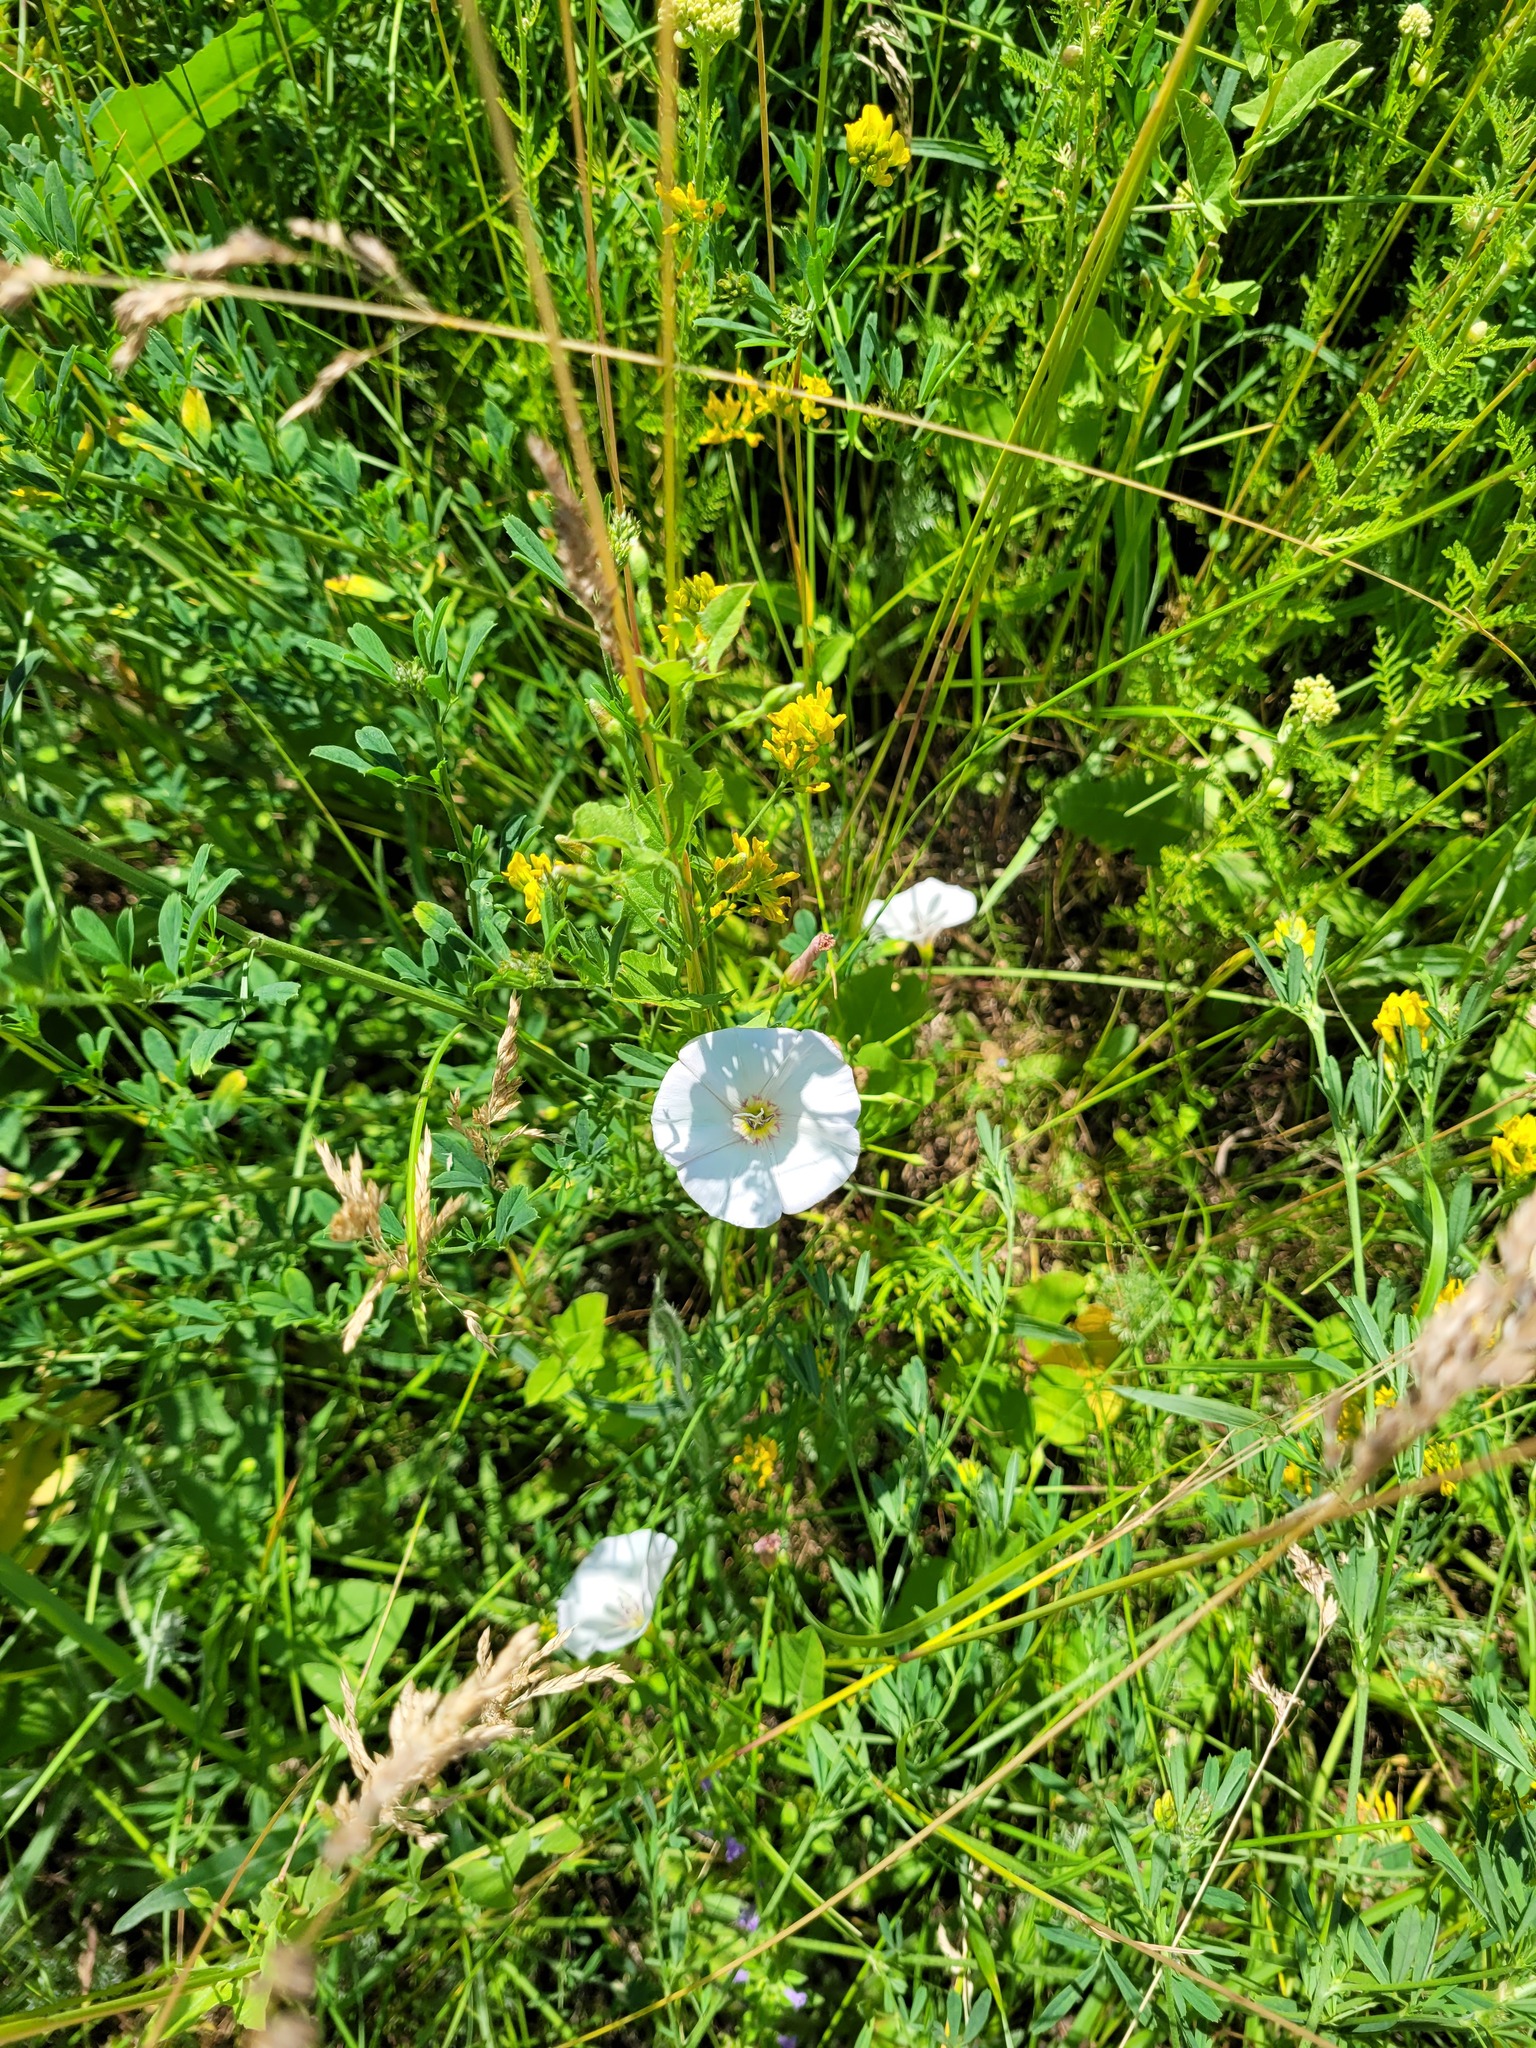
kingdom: Plantae
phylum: Tracheophyta
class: Magnoliopsida
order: Solanales
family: Convolvulaceae
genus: Convolvulus
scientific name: Convolvulus arvensis
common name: Field bindweed
